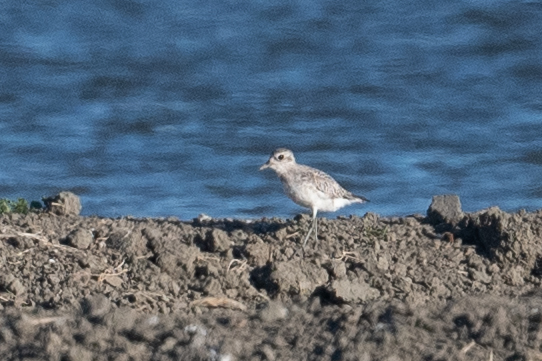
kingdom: Animalia
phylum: Chordata
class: Aves
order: Charadriiformes
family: Charadriidae
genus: Pluvialis
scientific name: Pluvialis squatarola
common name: Grey plover
